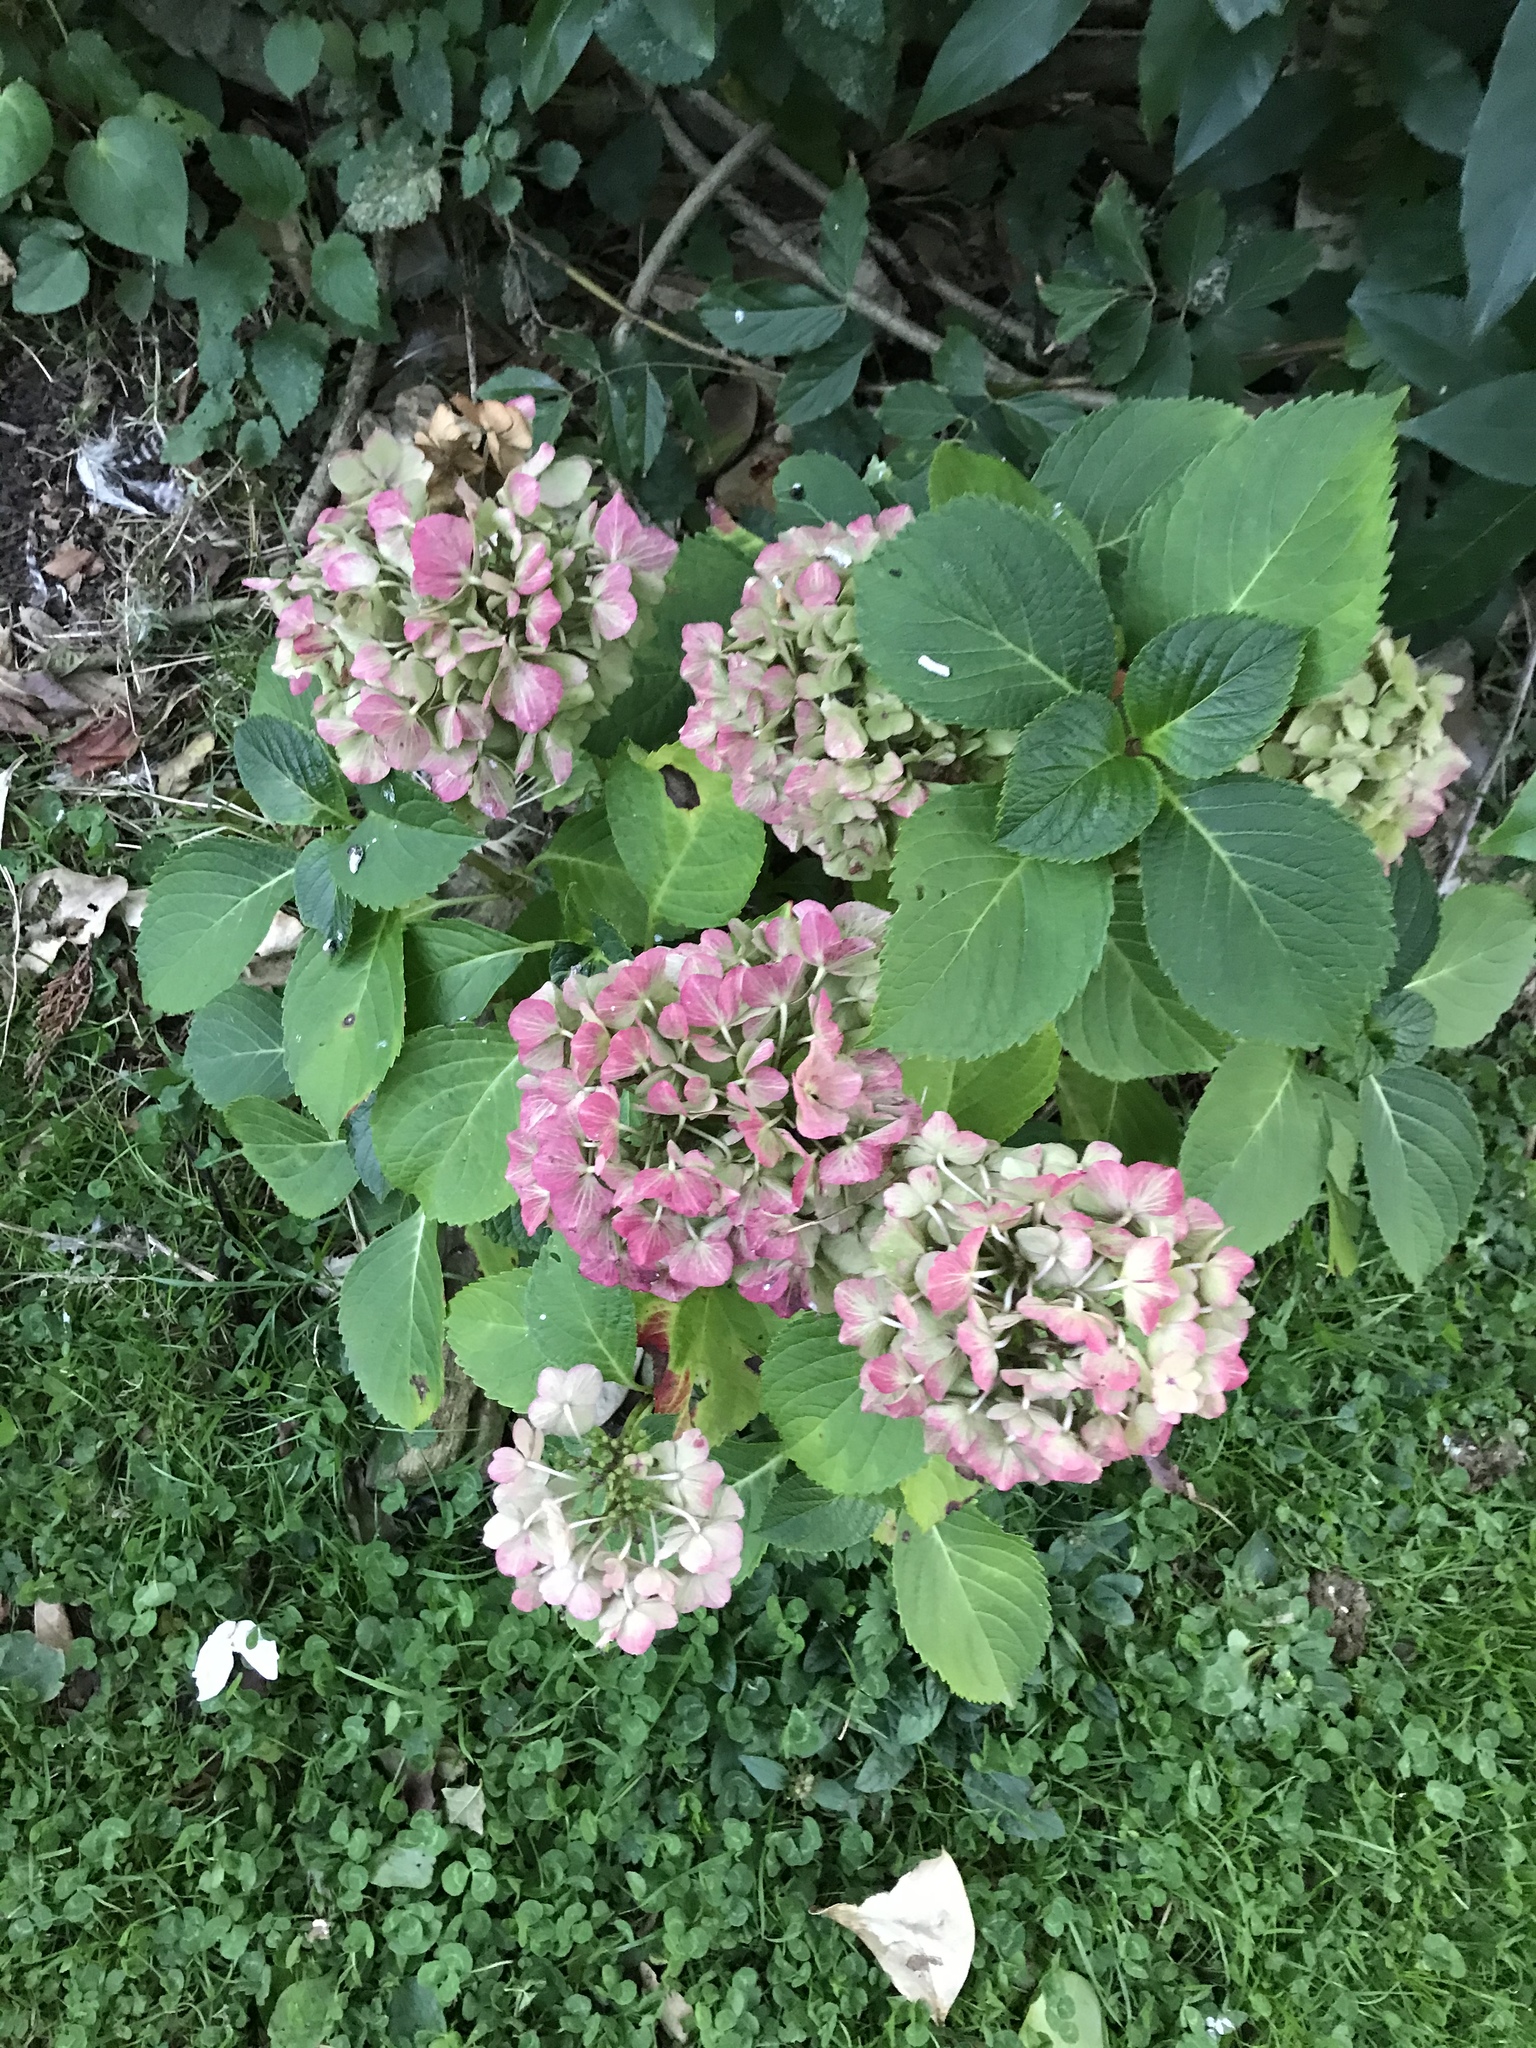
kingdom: Plantae
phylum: Tracheophyta
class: Magnoliopsida
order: Cornales
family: Hydrangeaceae
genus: Hydrangea
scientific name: Hydrangea macrophylla
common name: Hydrangea
